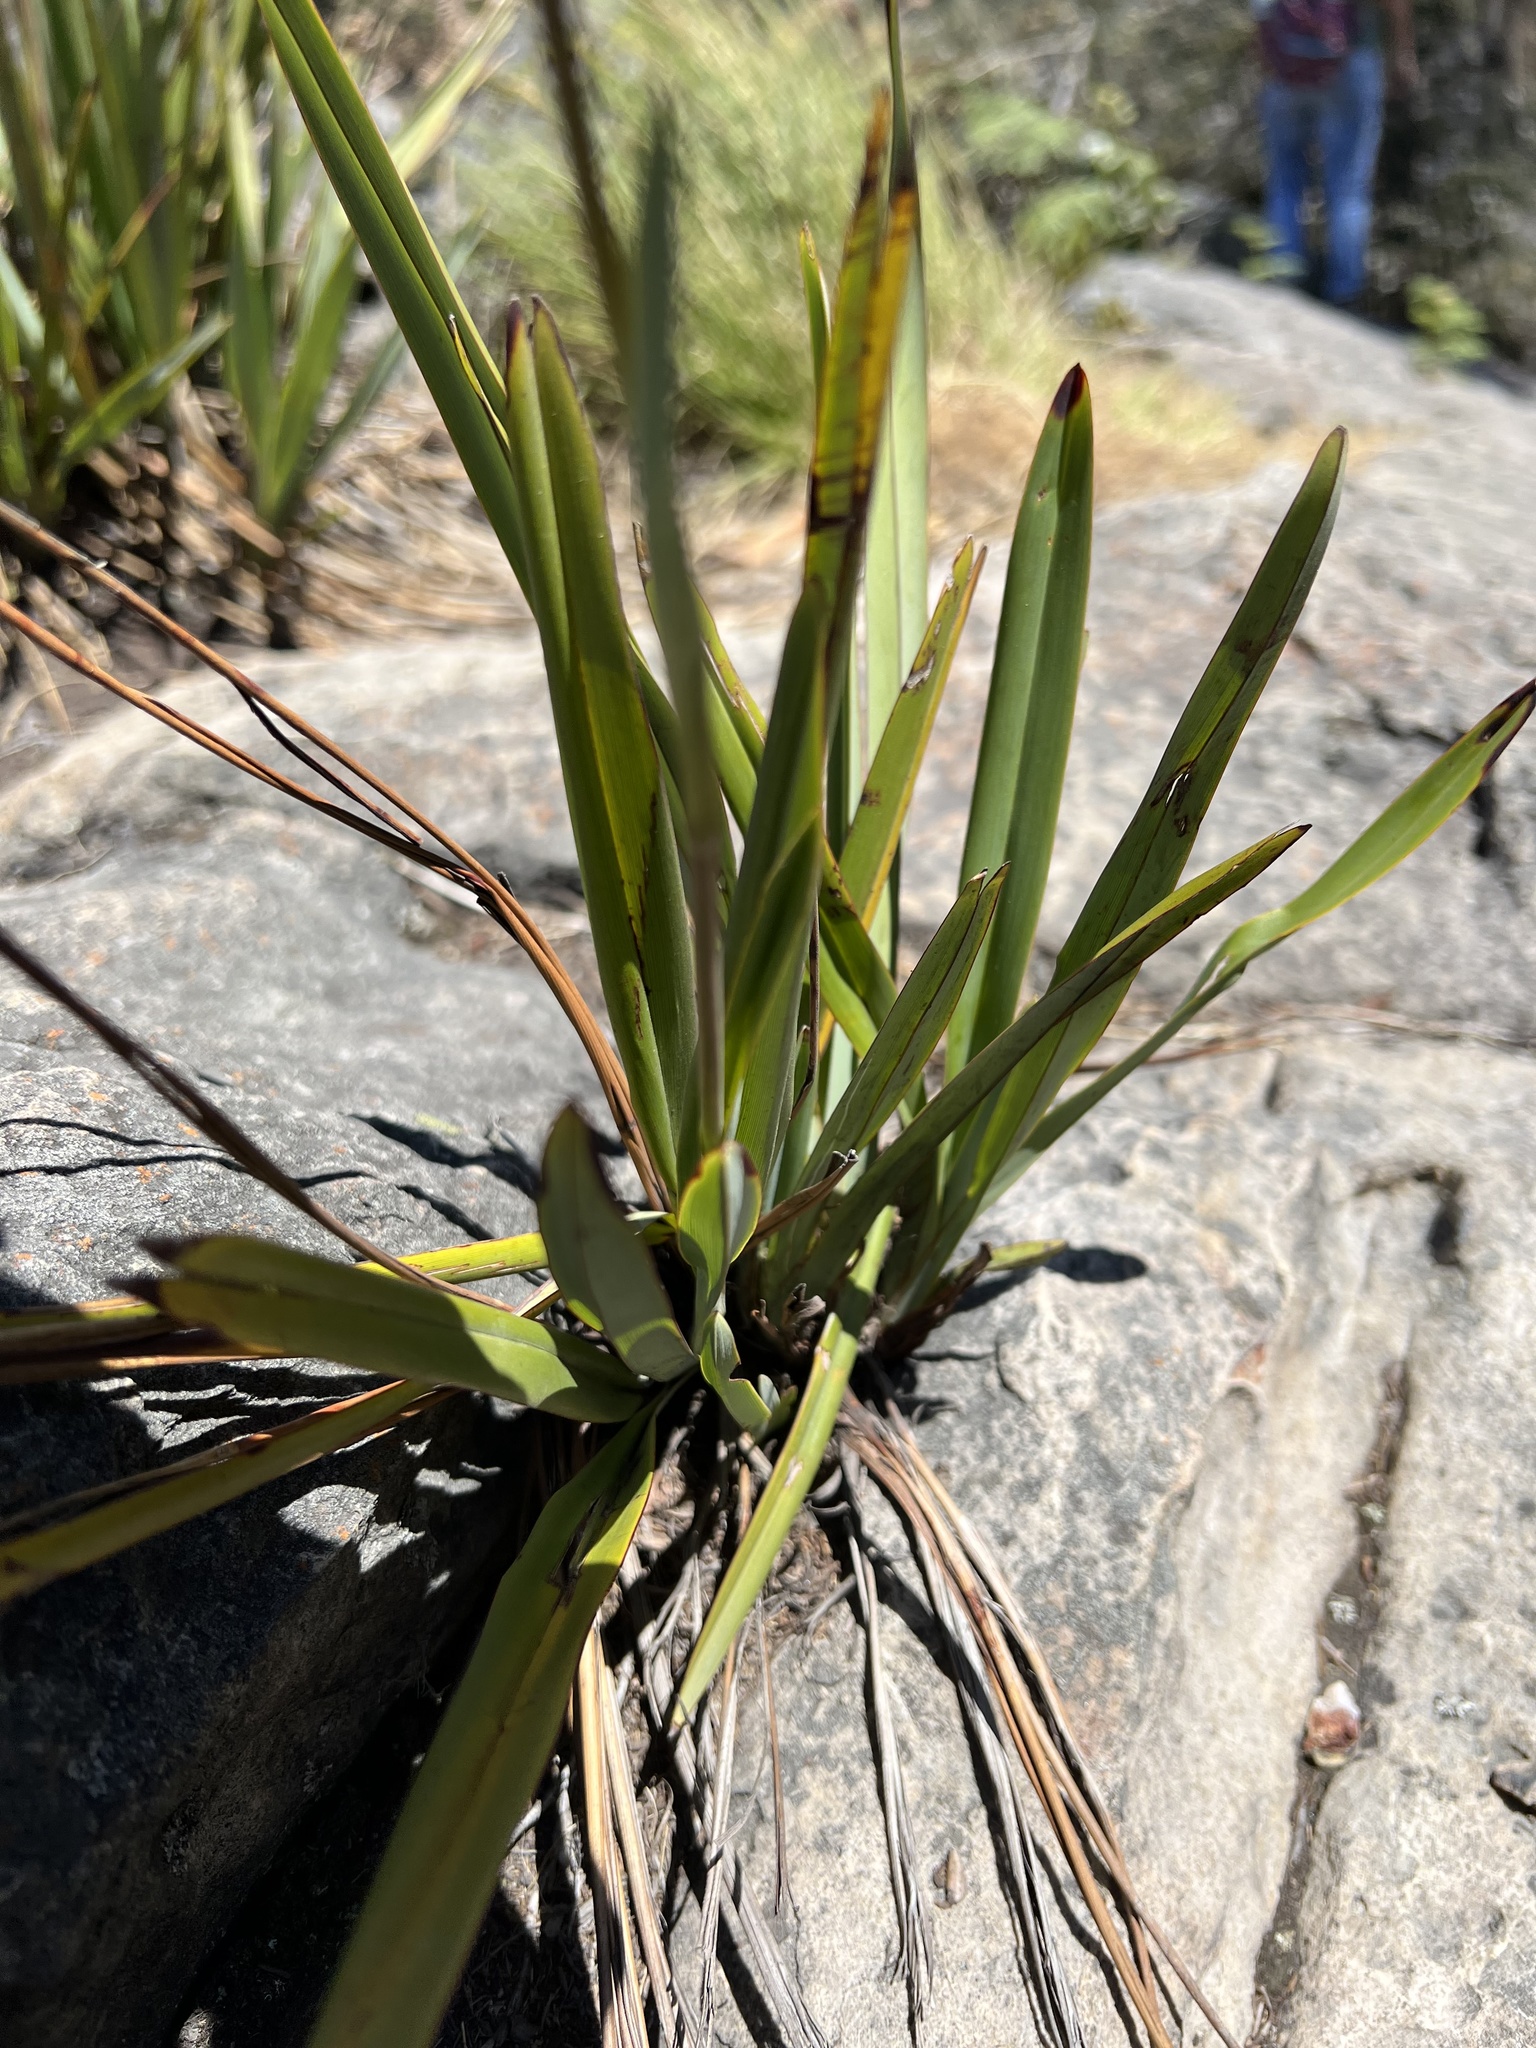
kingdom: Plantae
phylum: Tracheophyta
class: Liliopsida
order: Asparagales
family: Asphodelaceae
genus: Excremis
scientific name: Excremis coarctata
